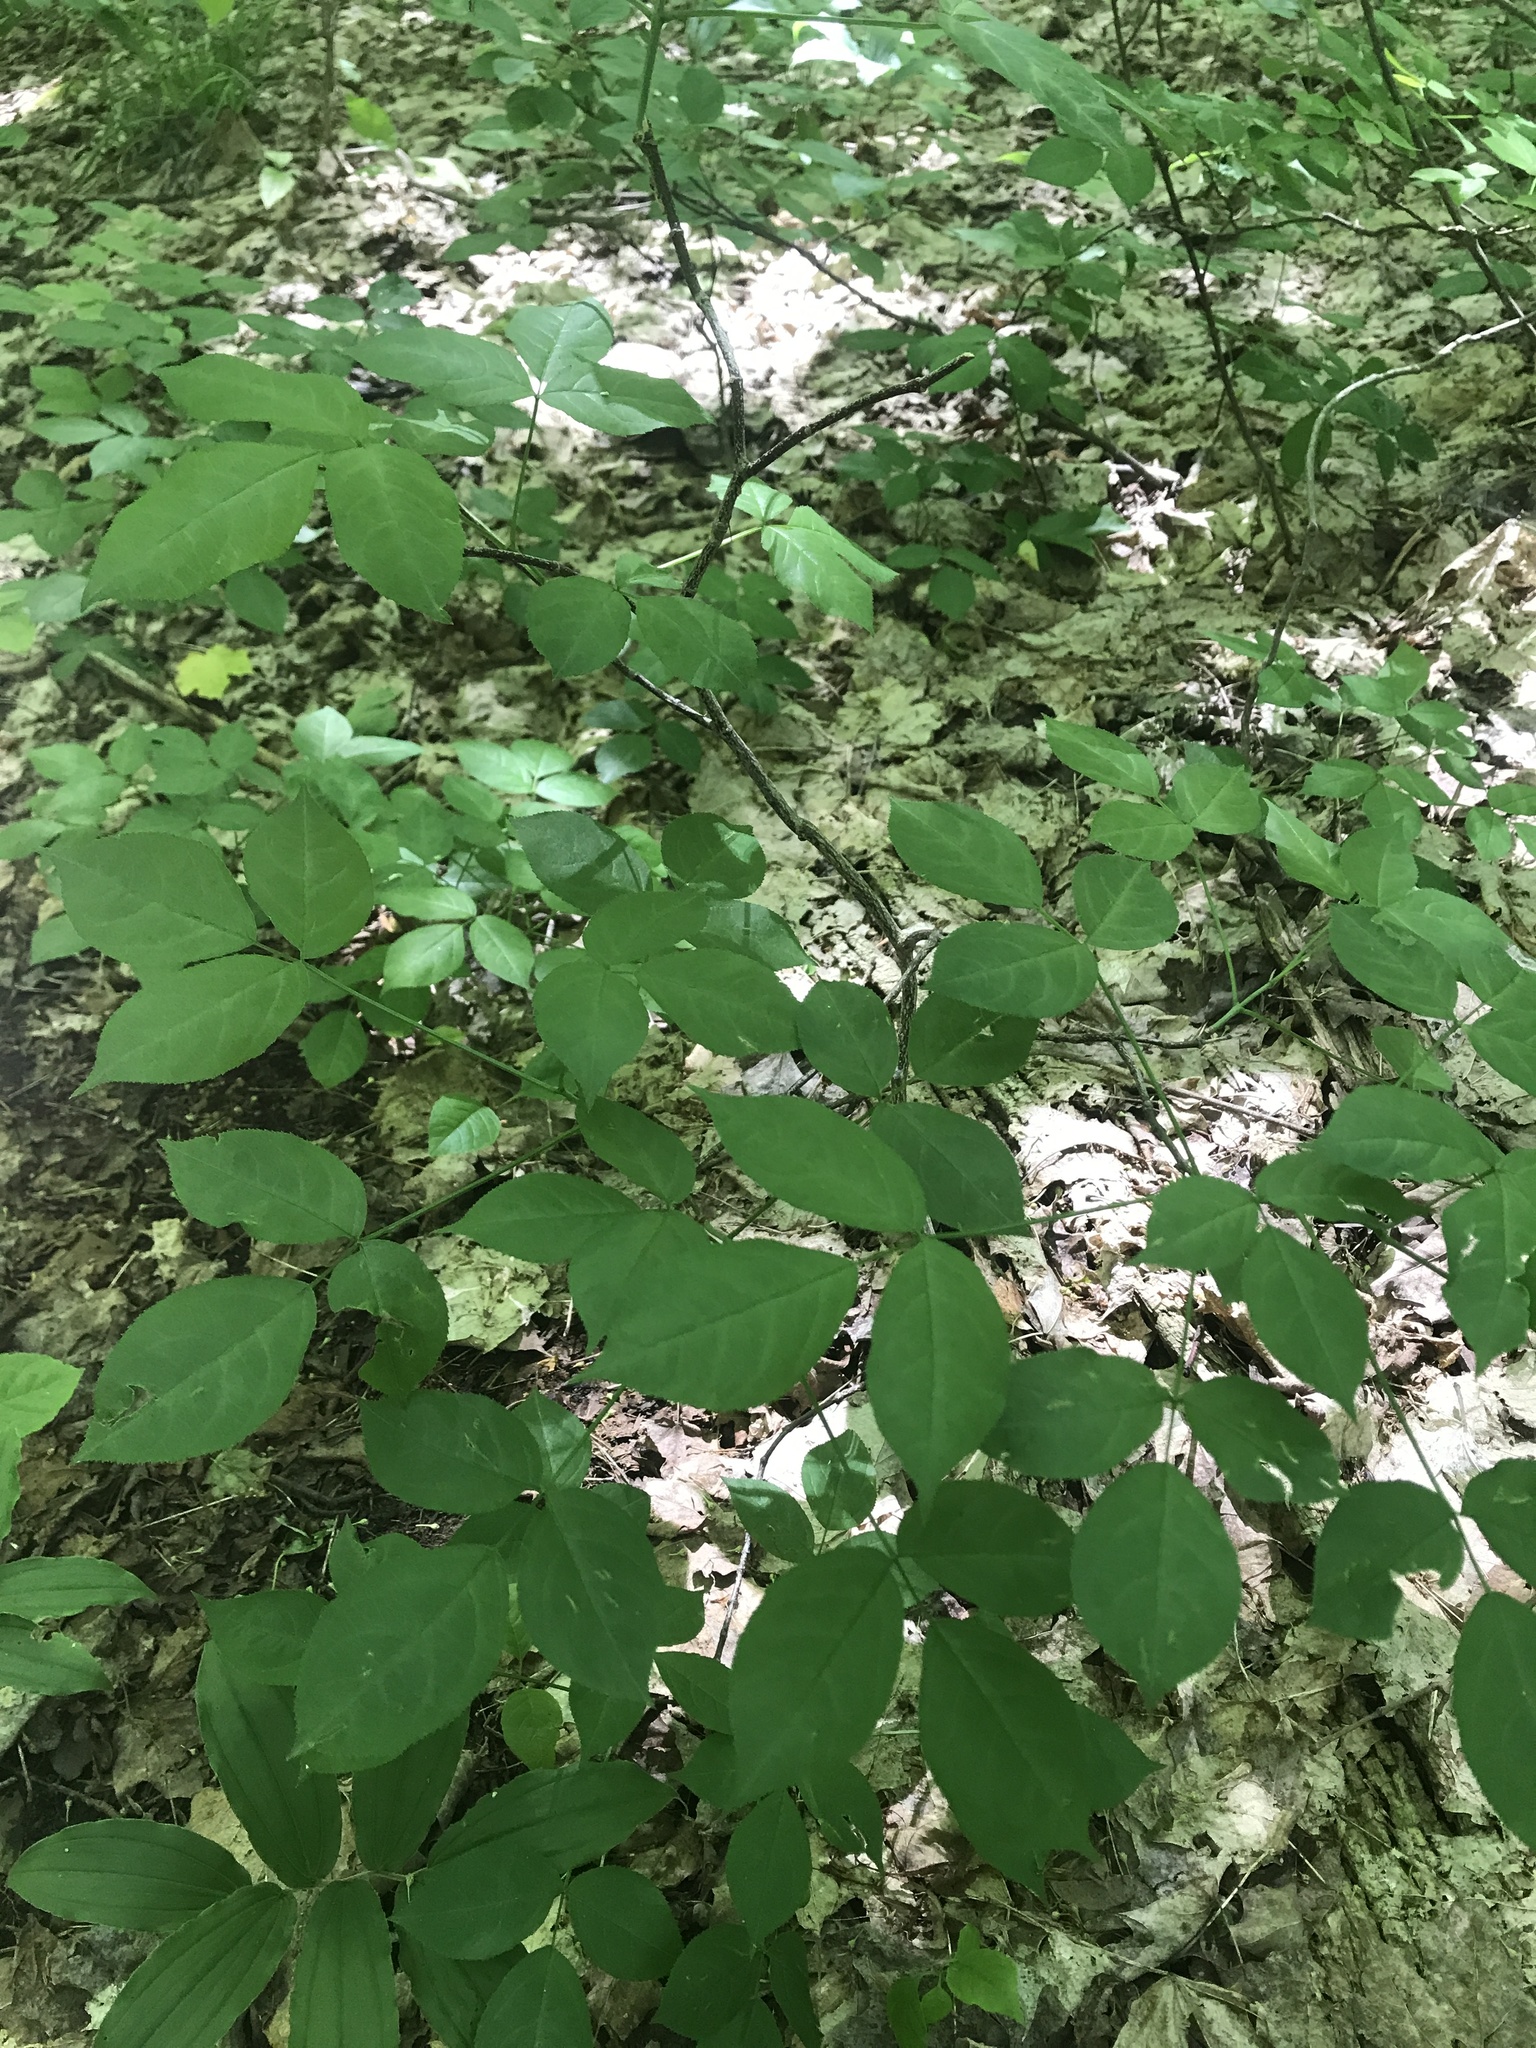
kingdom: Plantae
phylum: Tracheophyta
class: Magnoliopsida
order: Crossosomatales
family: Staphyleaceae
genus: Staphylea
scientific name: Staphylea trifolia
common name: American bladdernut
